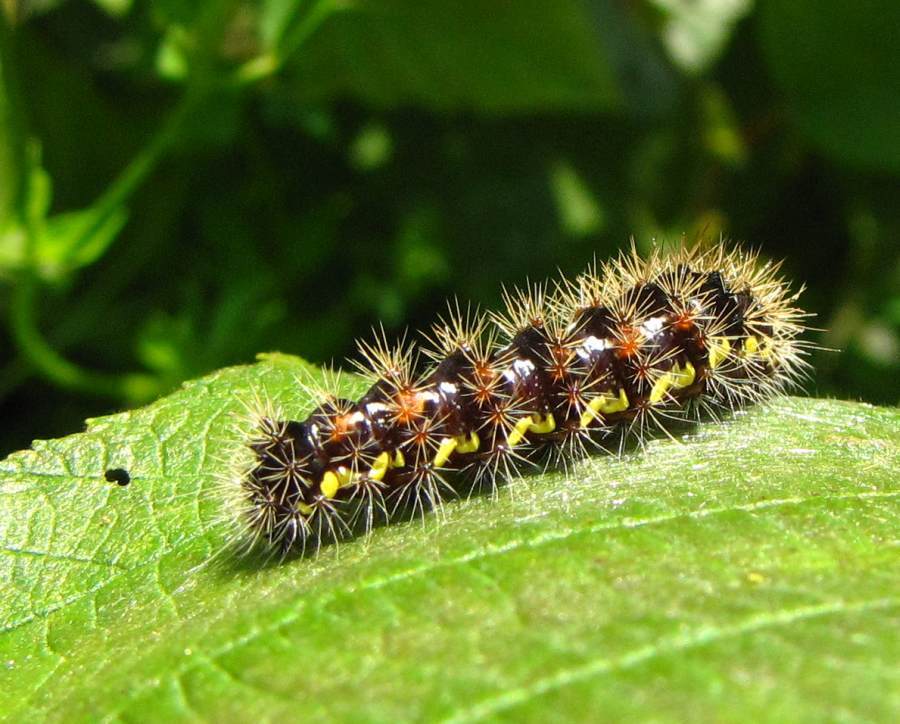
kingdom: Animalia
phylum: Arthropoda
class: Insecta
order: Lepidoptera
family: Noctuidae
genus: Acronicta
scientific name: Acronicta oblinita
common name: Smeared dagger
